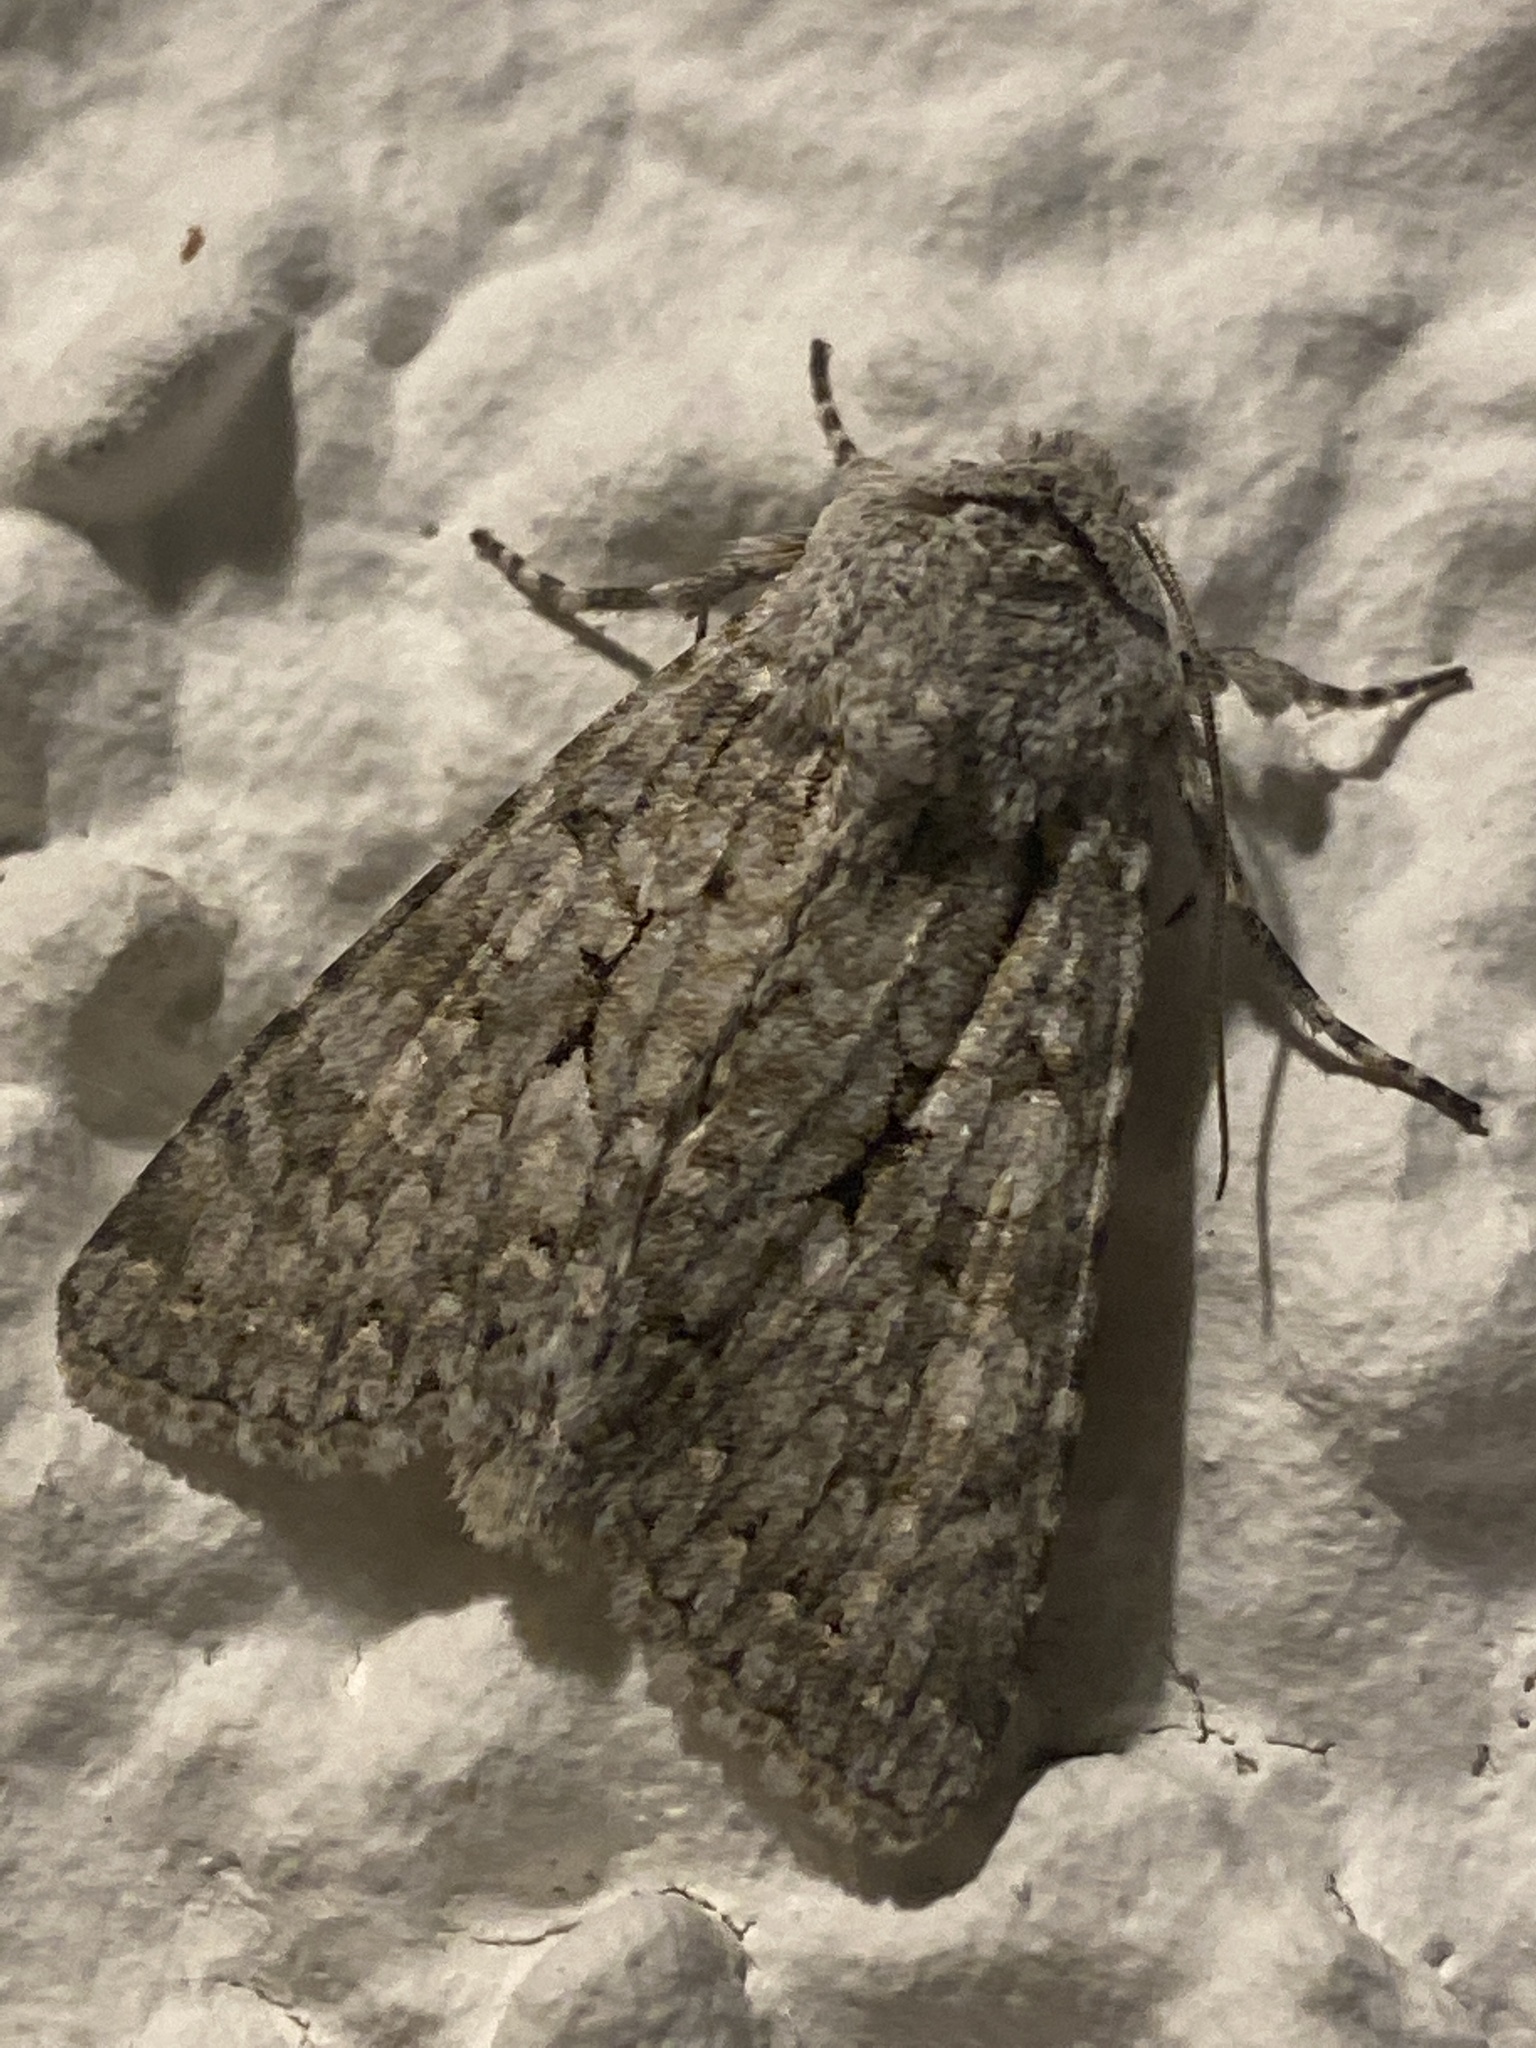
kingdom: Animalia
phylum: Arthropoda
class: Insecta
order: Lepidoptera
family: Noctuidae
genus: Antitype
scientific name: Antitype chi
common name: Grey chi
